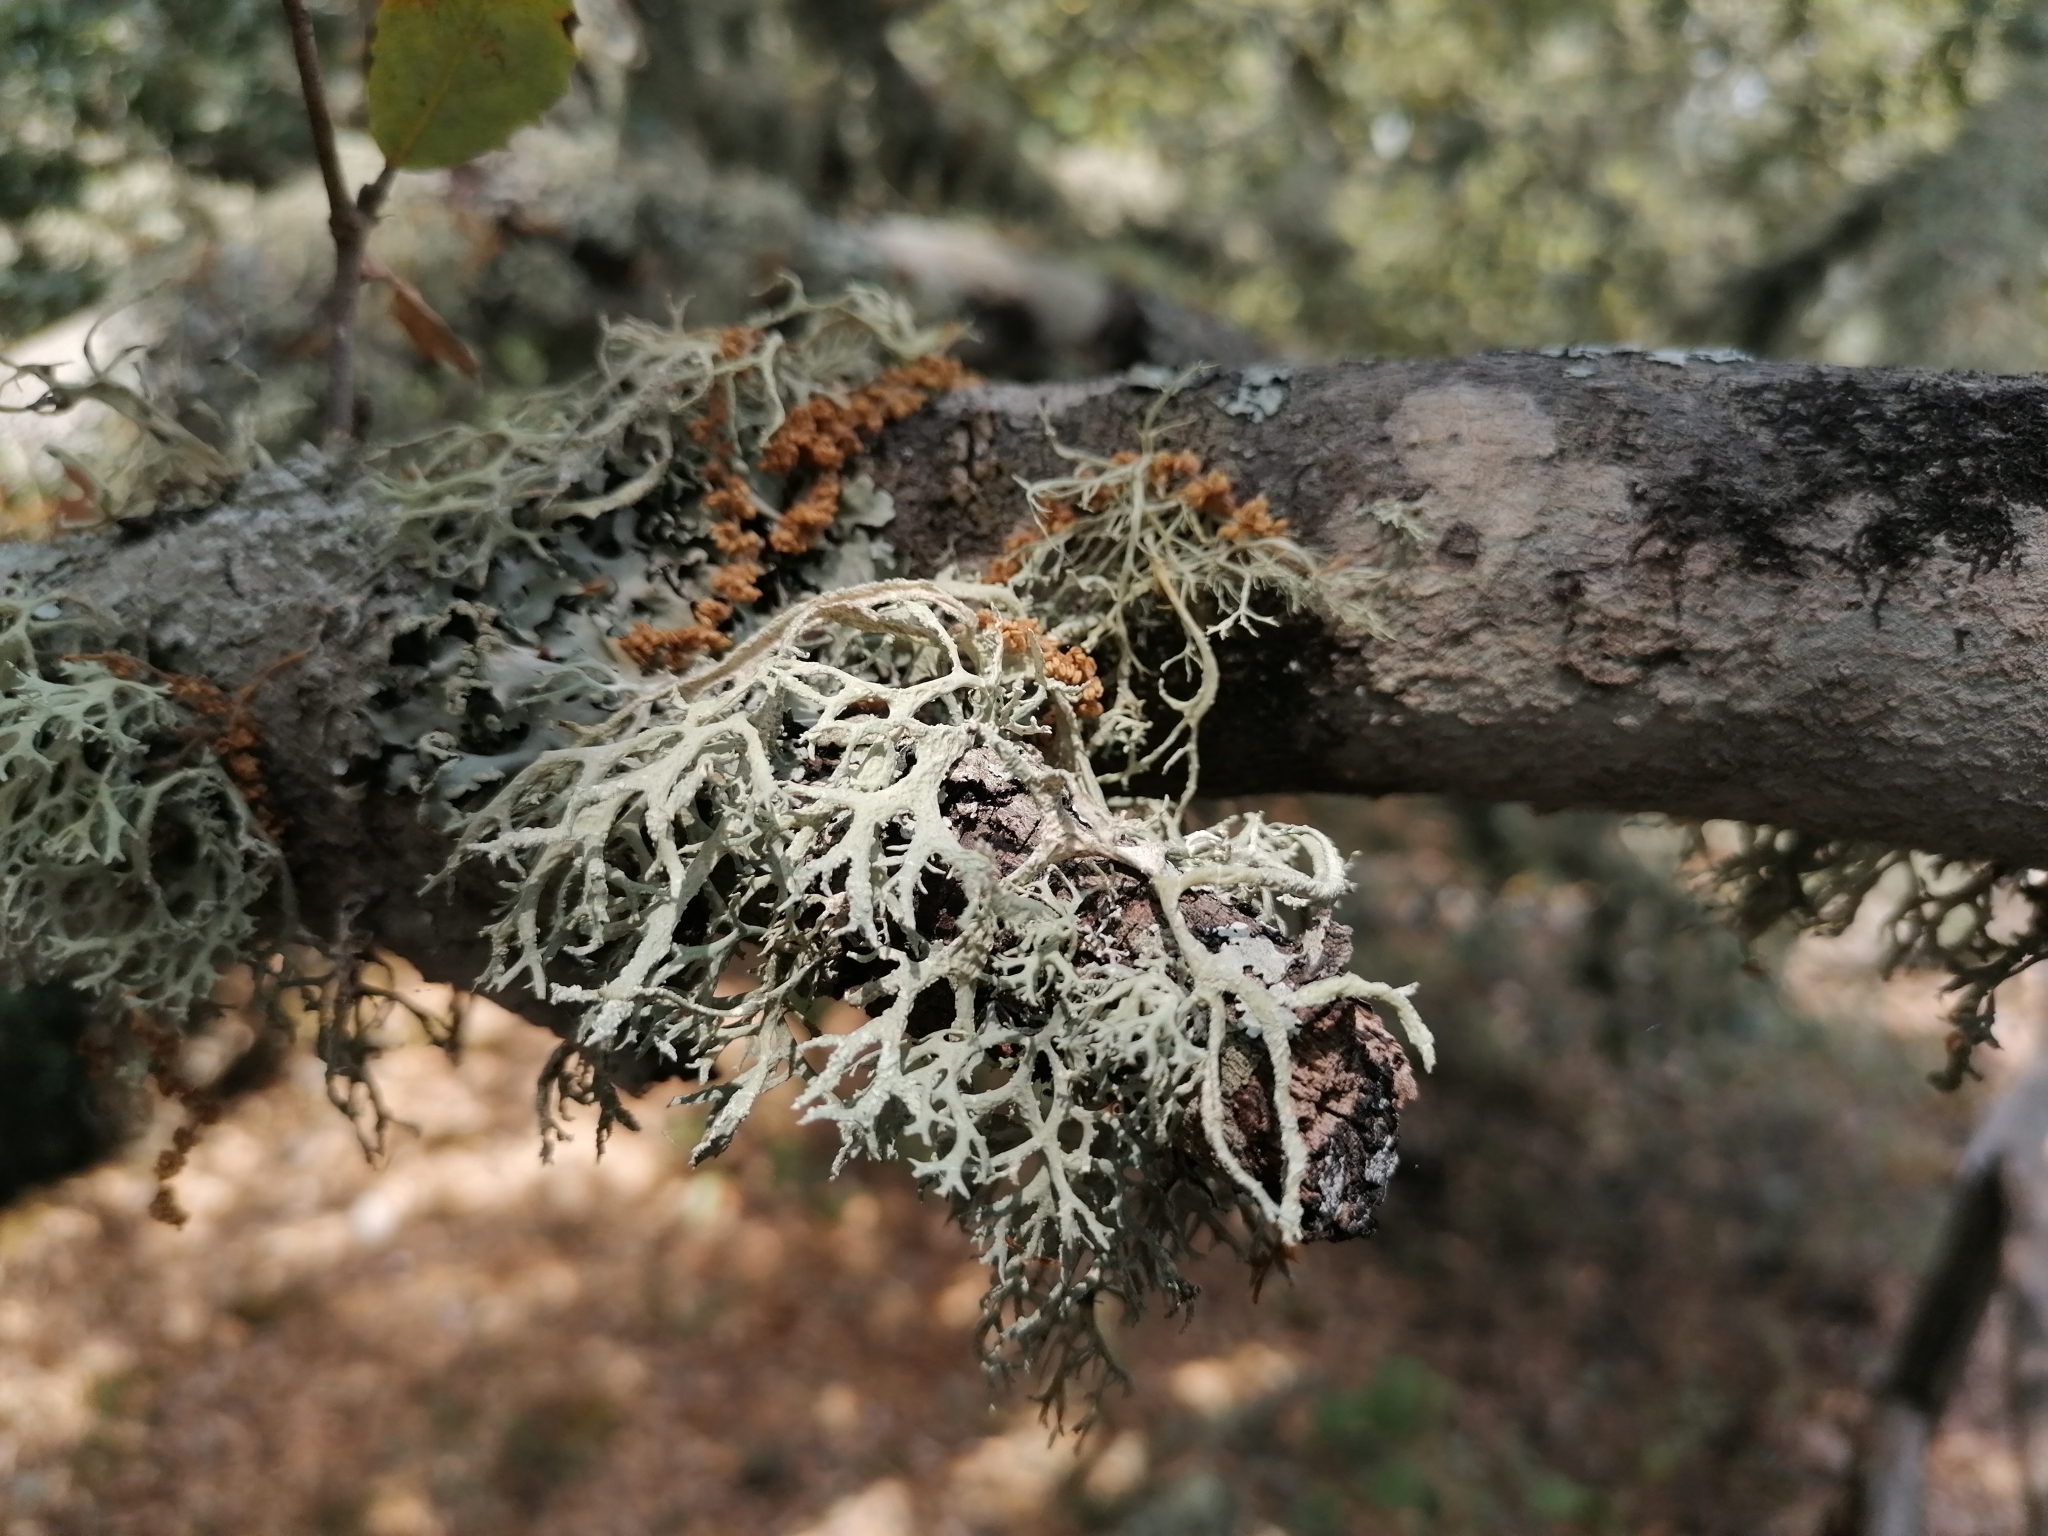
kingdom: Fungi
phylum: Ascomycota
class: Lecanoromycetes
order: Lecanorales
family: Parmeliaceae
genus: Pseudevernia
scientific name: Pseudevernia furfuracea
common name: Tree moss
